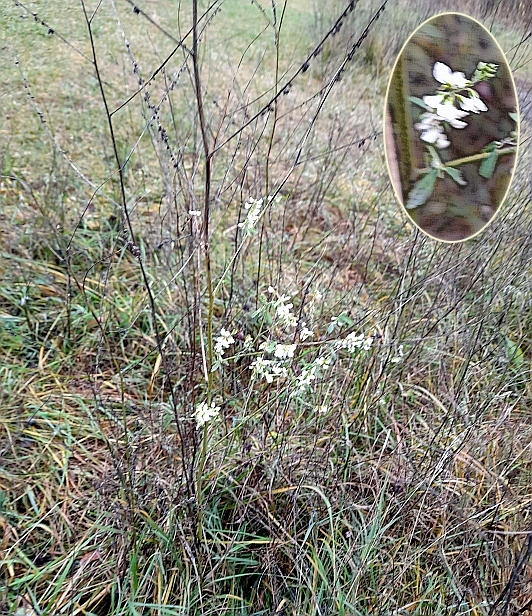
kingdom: Plantae
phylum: Tracheophyta
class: Magnoliopsida
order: Fabales
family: Fabaceae
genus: Melilotus
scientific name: Melilotus albus
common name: White melilot
